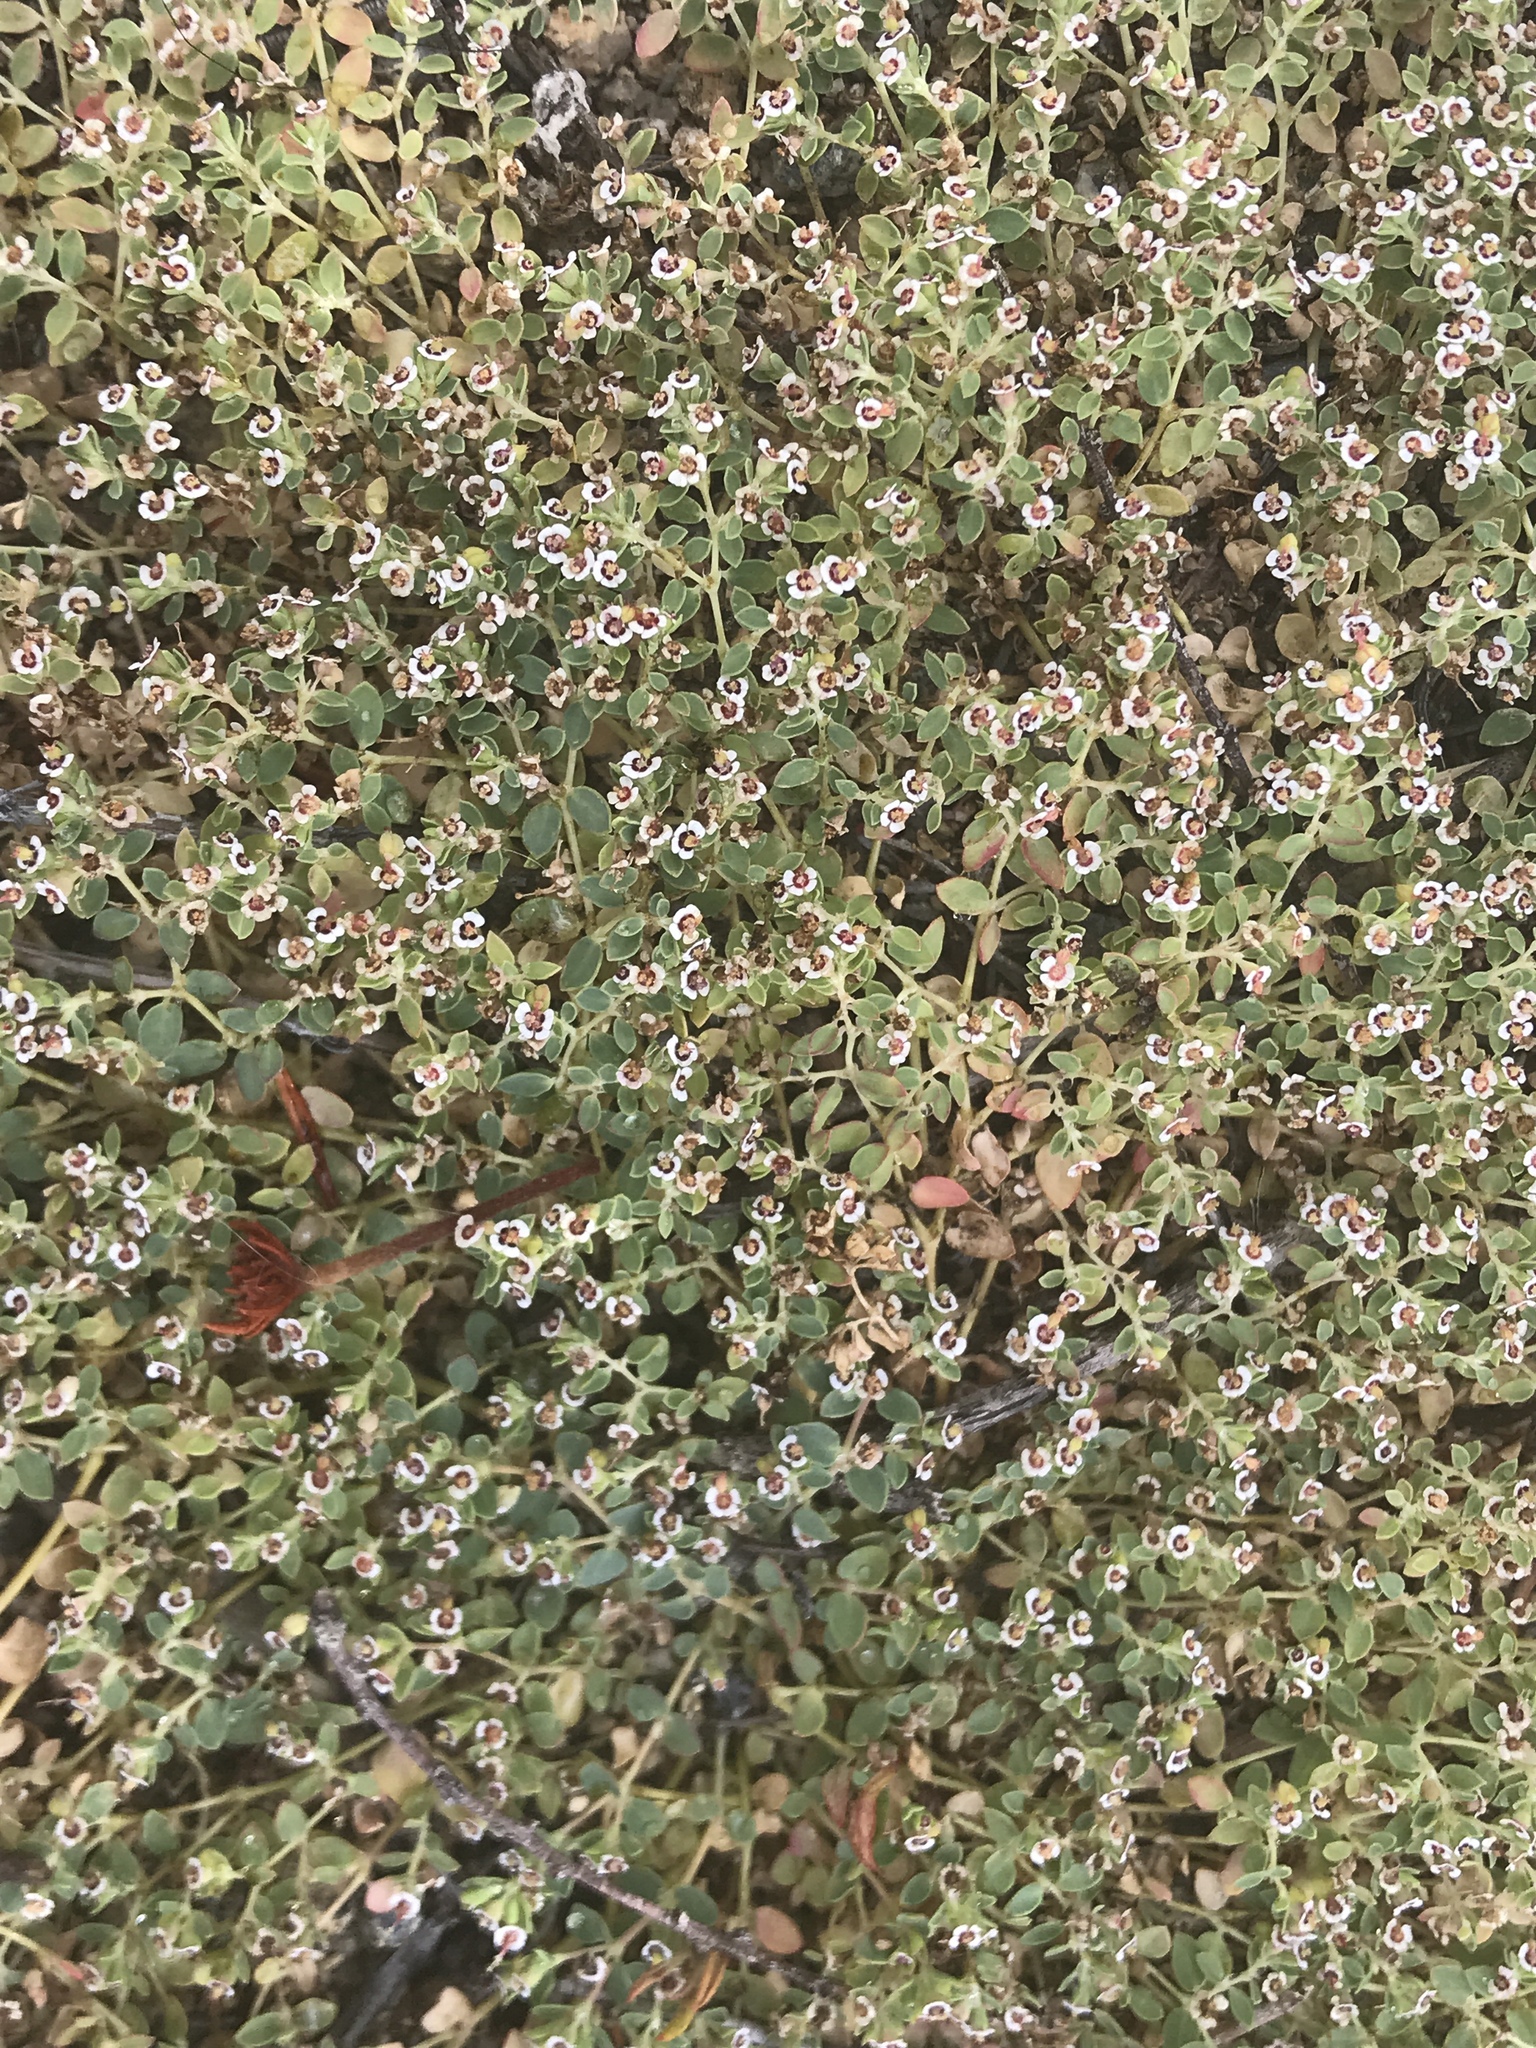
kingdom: Plantae
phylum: Tracheophyta
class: Magnoliopsida
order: Malpighiales
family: Euphorbiaceae
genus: Euphorbia
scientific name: Euphorbia polycarpa
